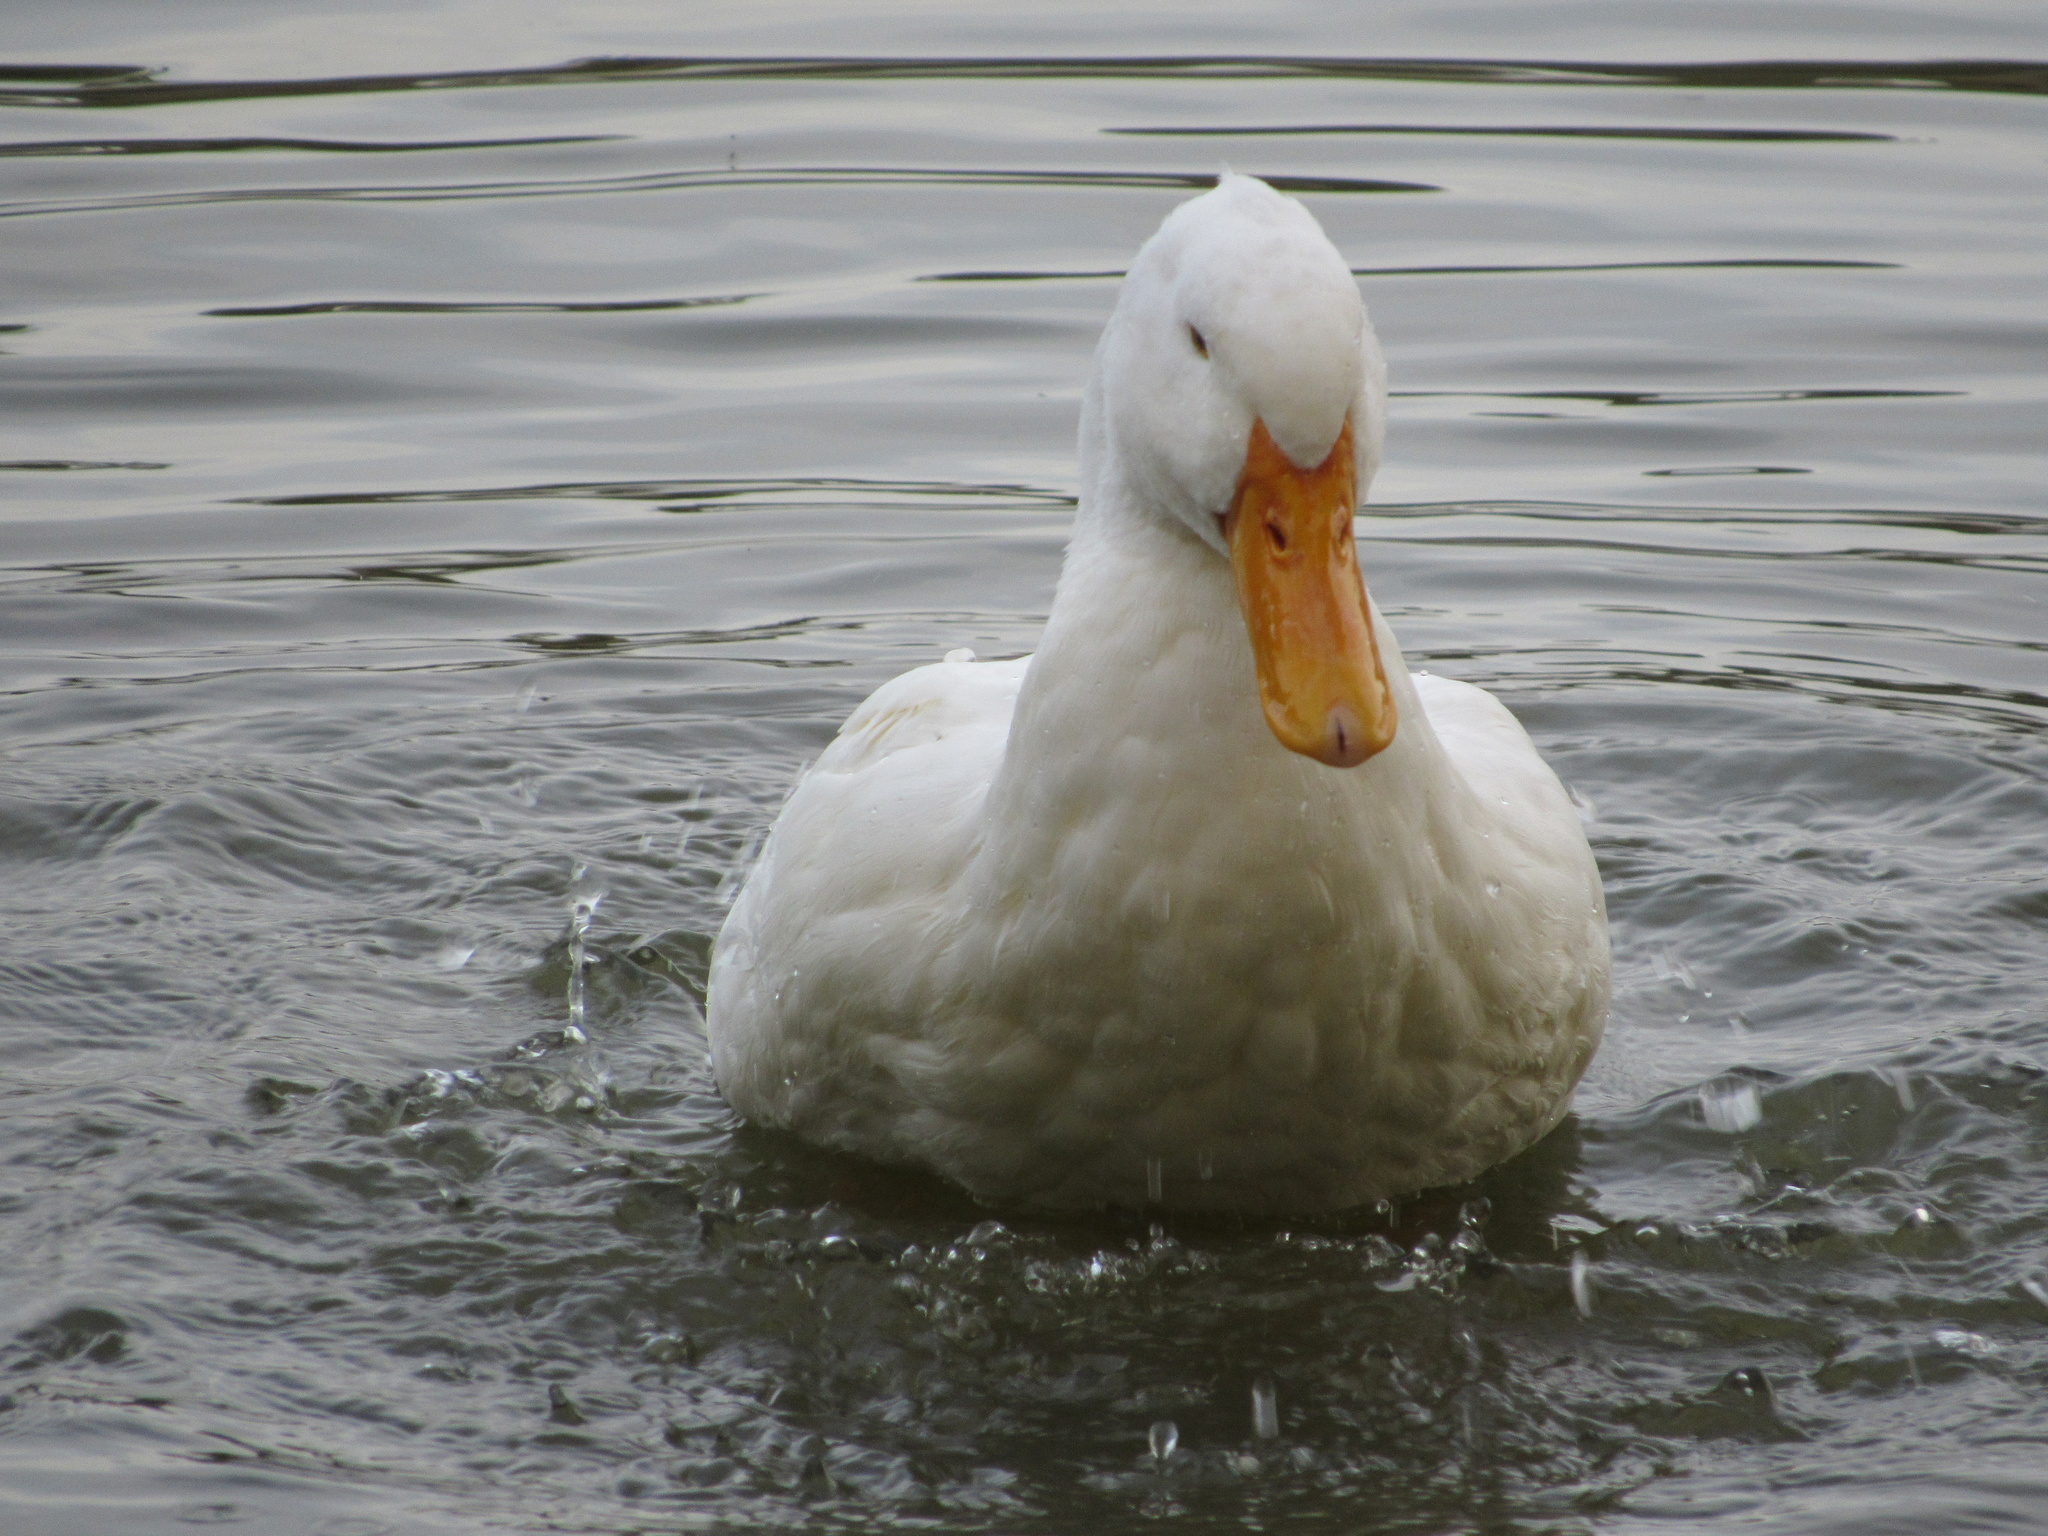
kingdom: Animalia
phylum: Chordata
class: Aves
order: Anseriformes
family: Anatidae
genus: Anas
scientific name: Anas platyrhynchos
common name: Mallard
